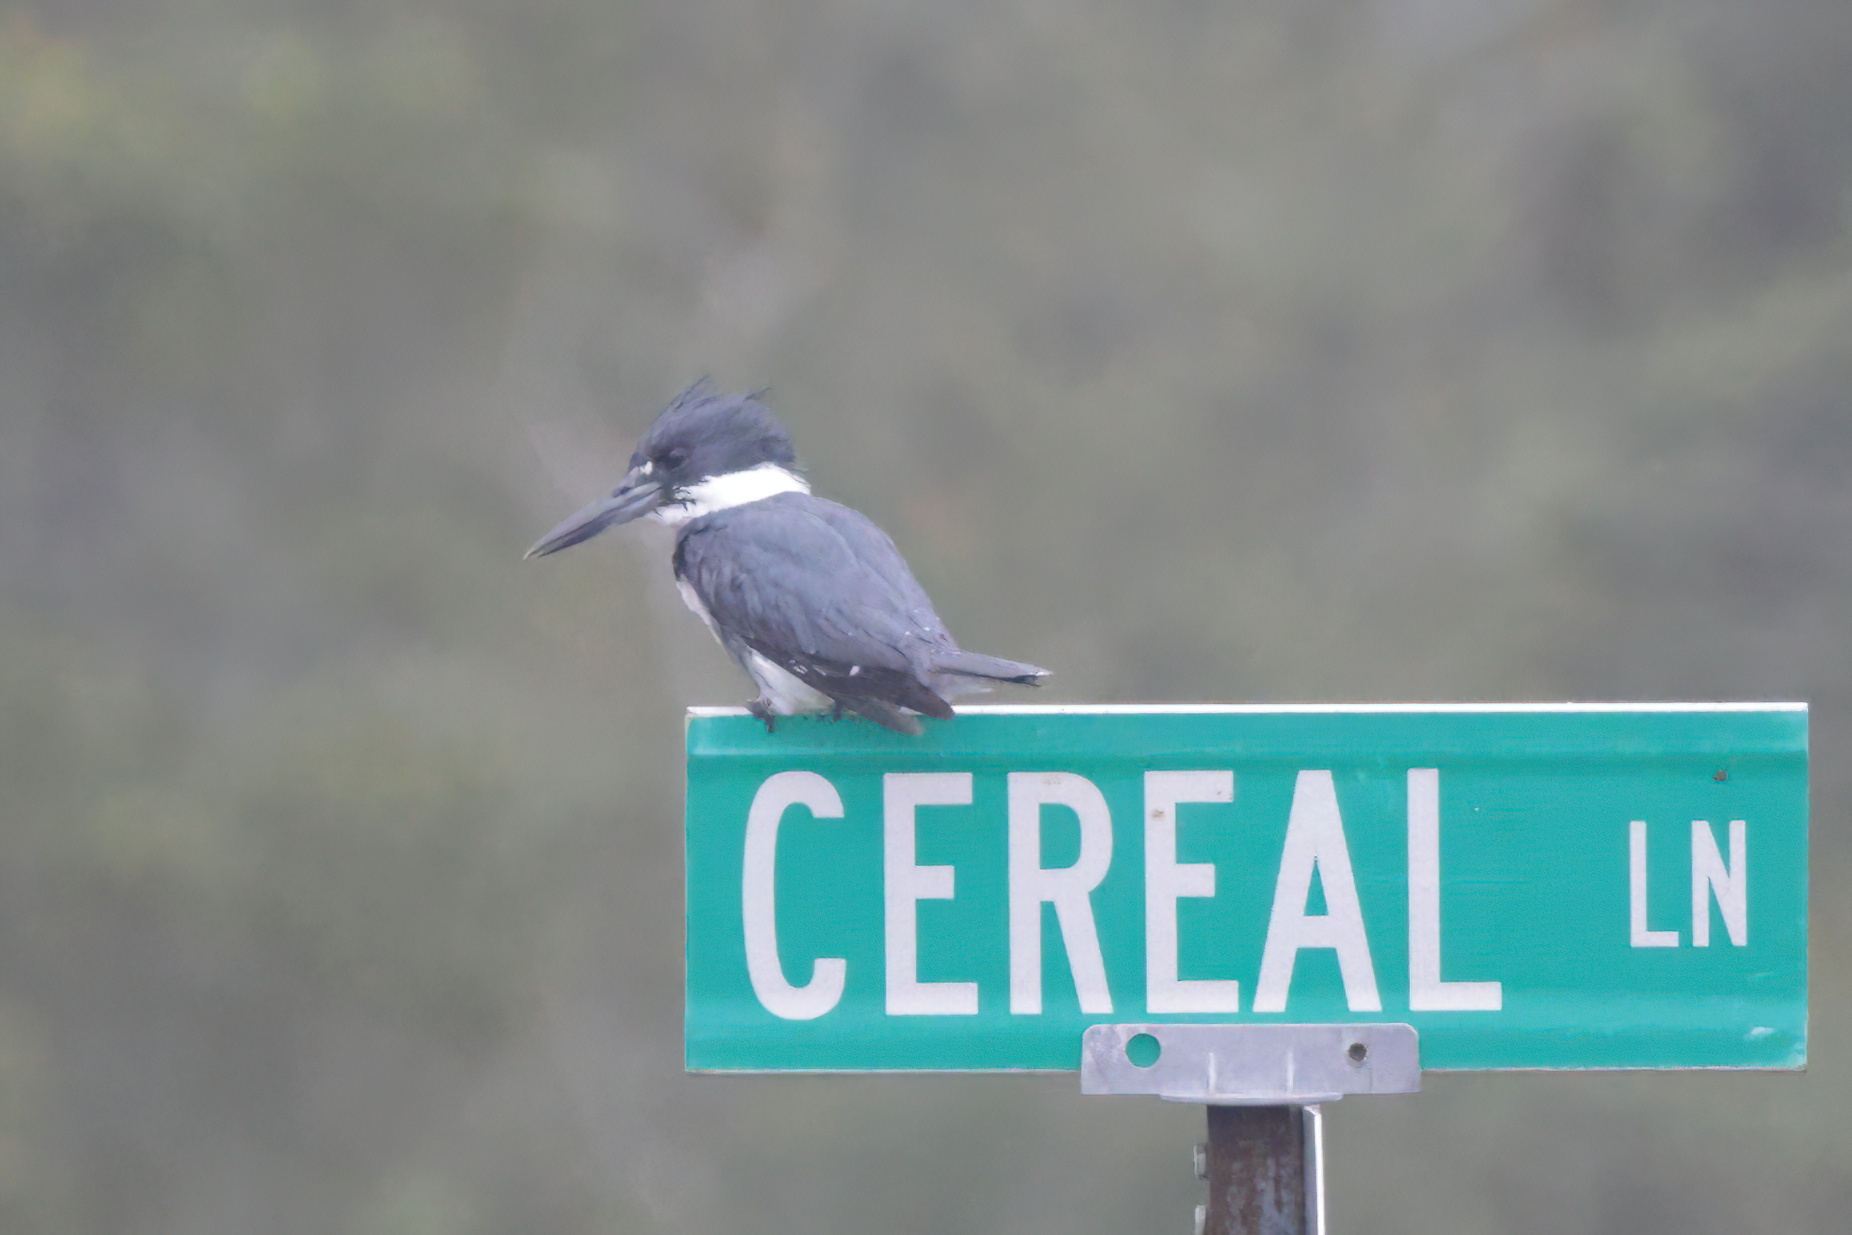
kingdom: Animalia
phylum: Chordata
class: Aves
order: Coraciiformes
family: Alcedinidae
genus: Megaceryle
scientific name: Megaceryle alcyon
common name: Belted kingfisher
